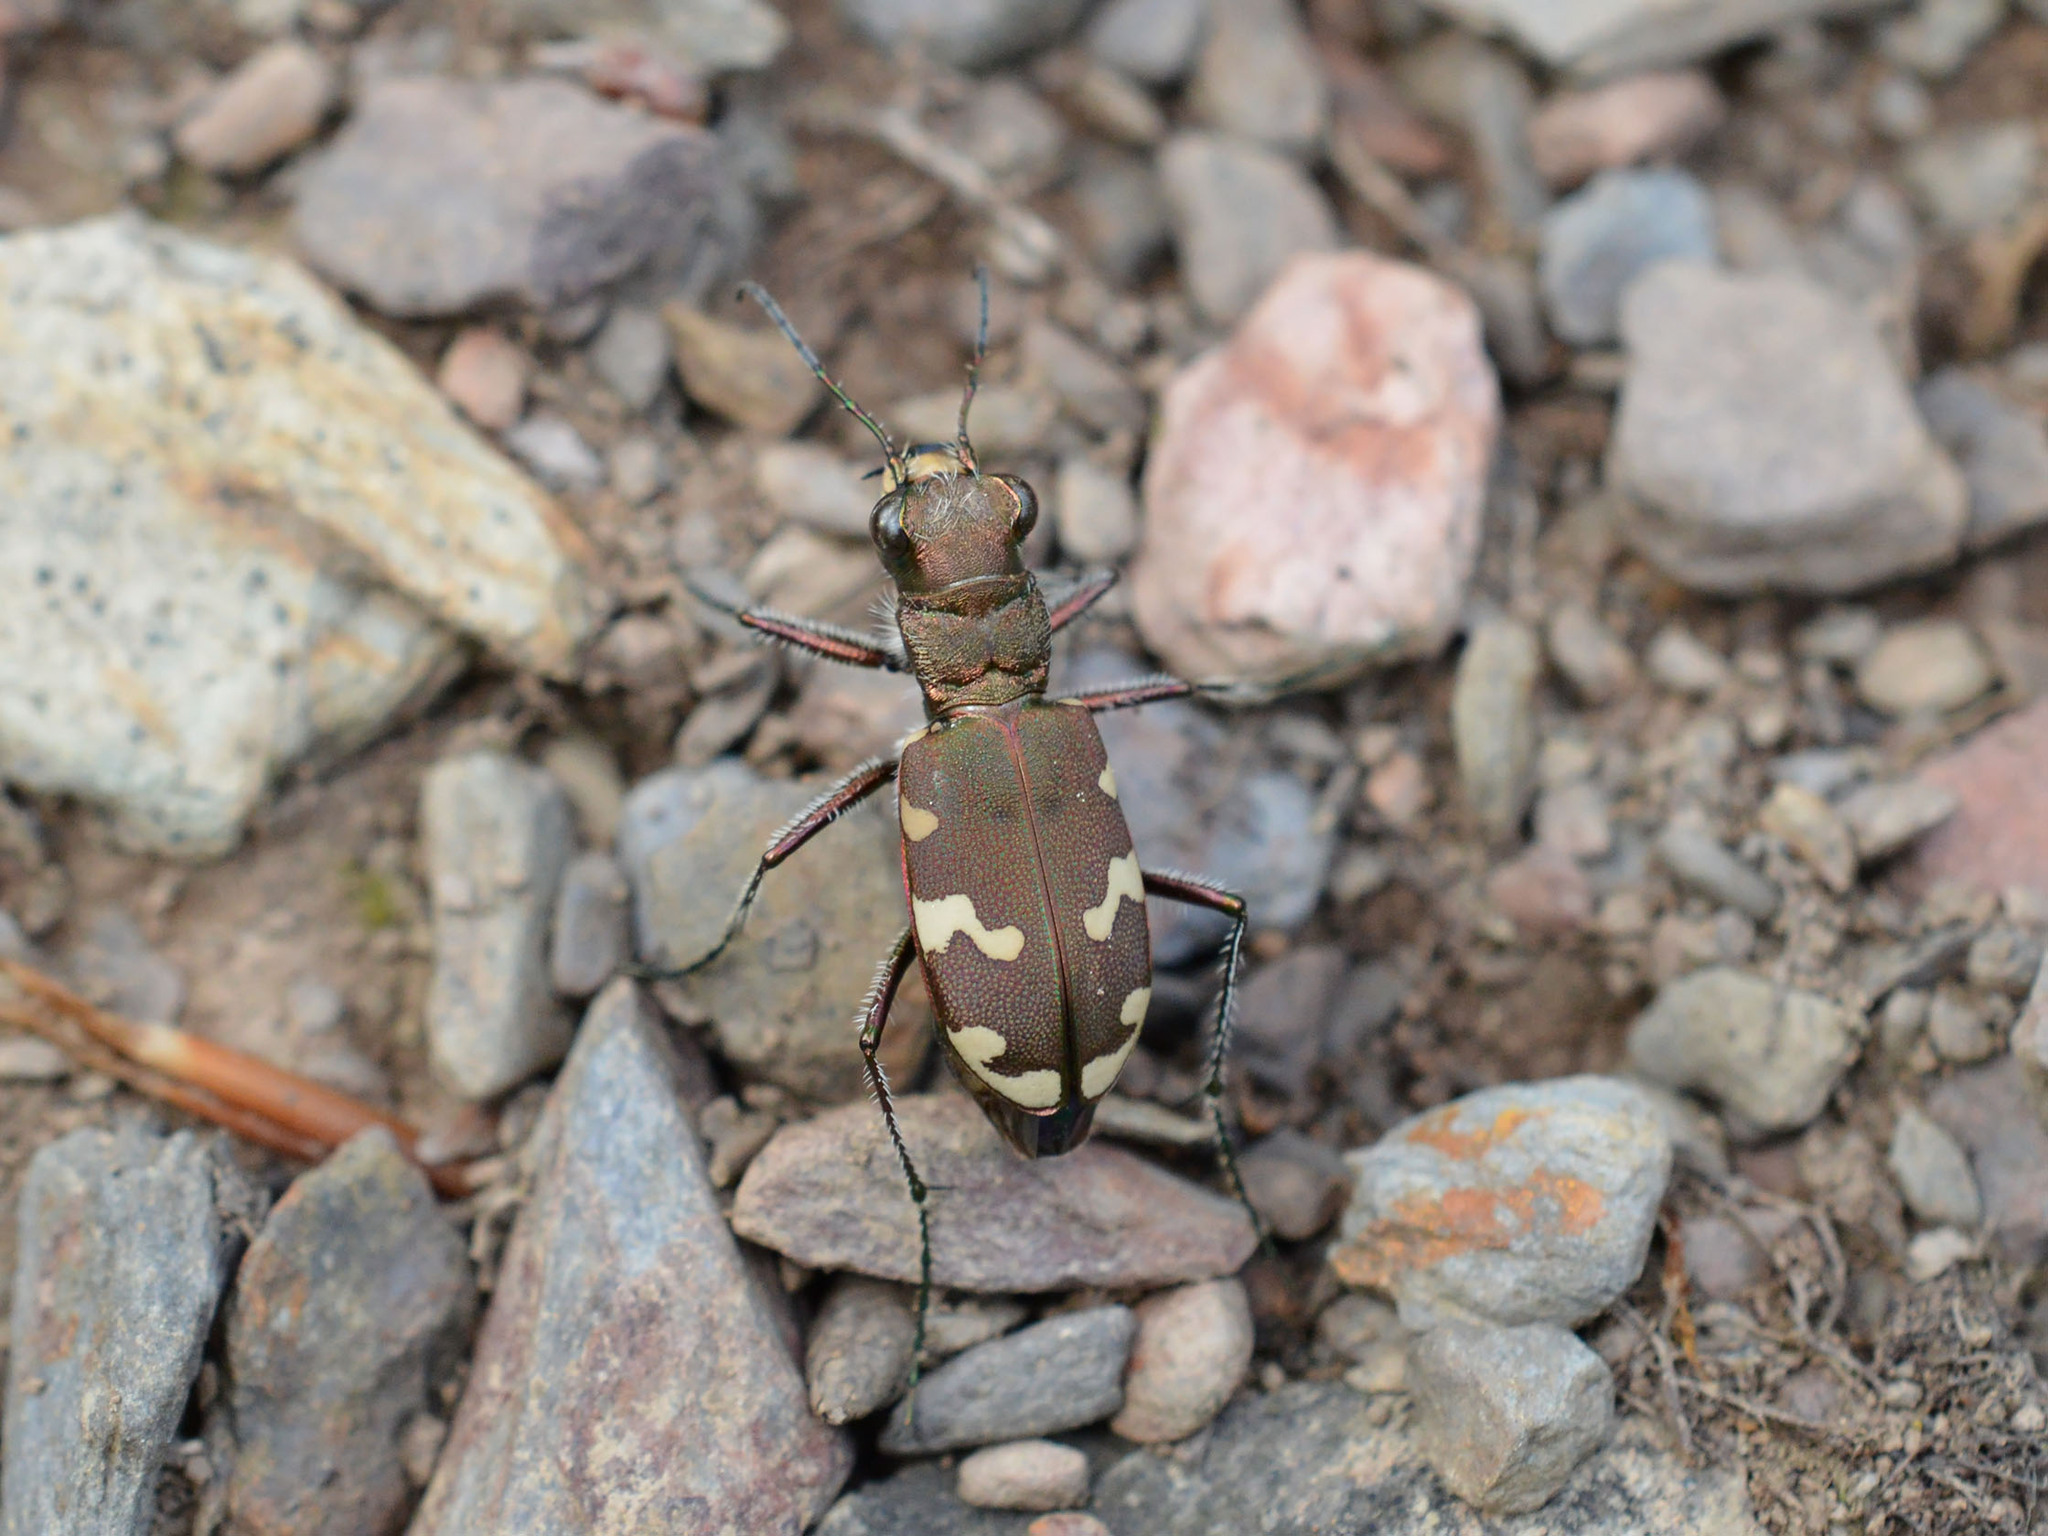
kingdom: Animalia
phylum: Arthropoda
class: Insecta
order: Coleoptera
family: Carabidae
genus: Cicindela
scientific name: Cicindela sylvicola
